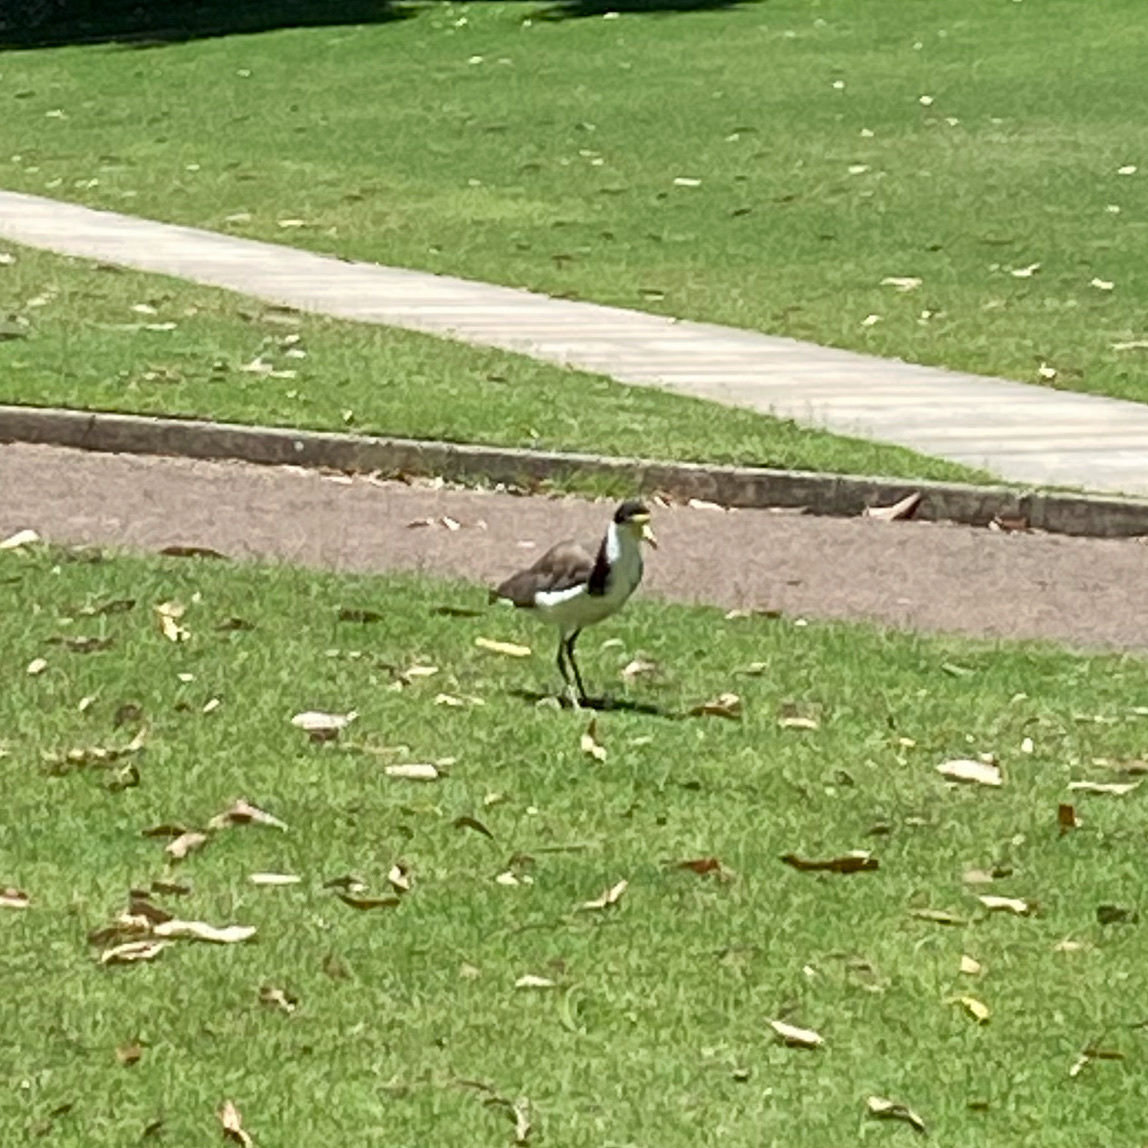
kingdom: Animalia
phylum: Chordata
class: Aves
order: Charadriiformes
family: Charadriidae
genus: Vanellus
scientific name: Vanellus miles
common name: Masked lapwing
